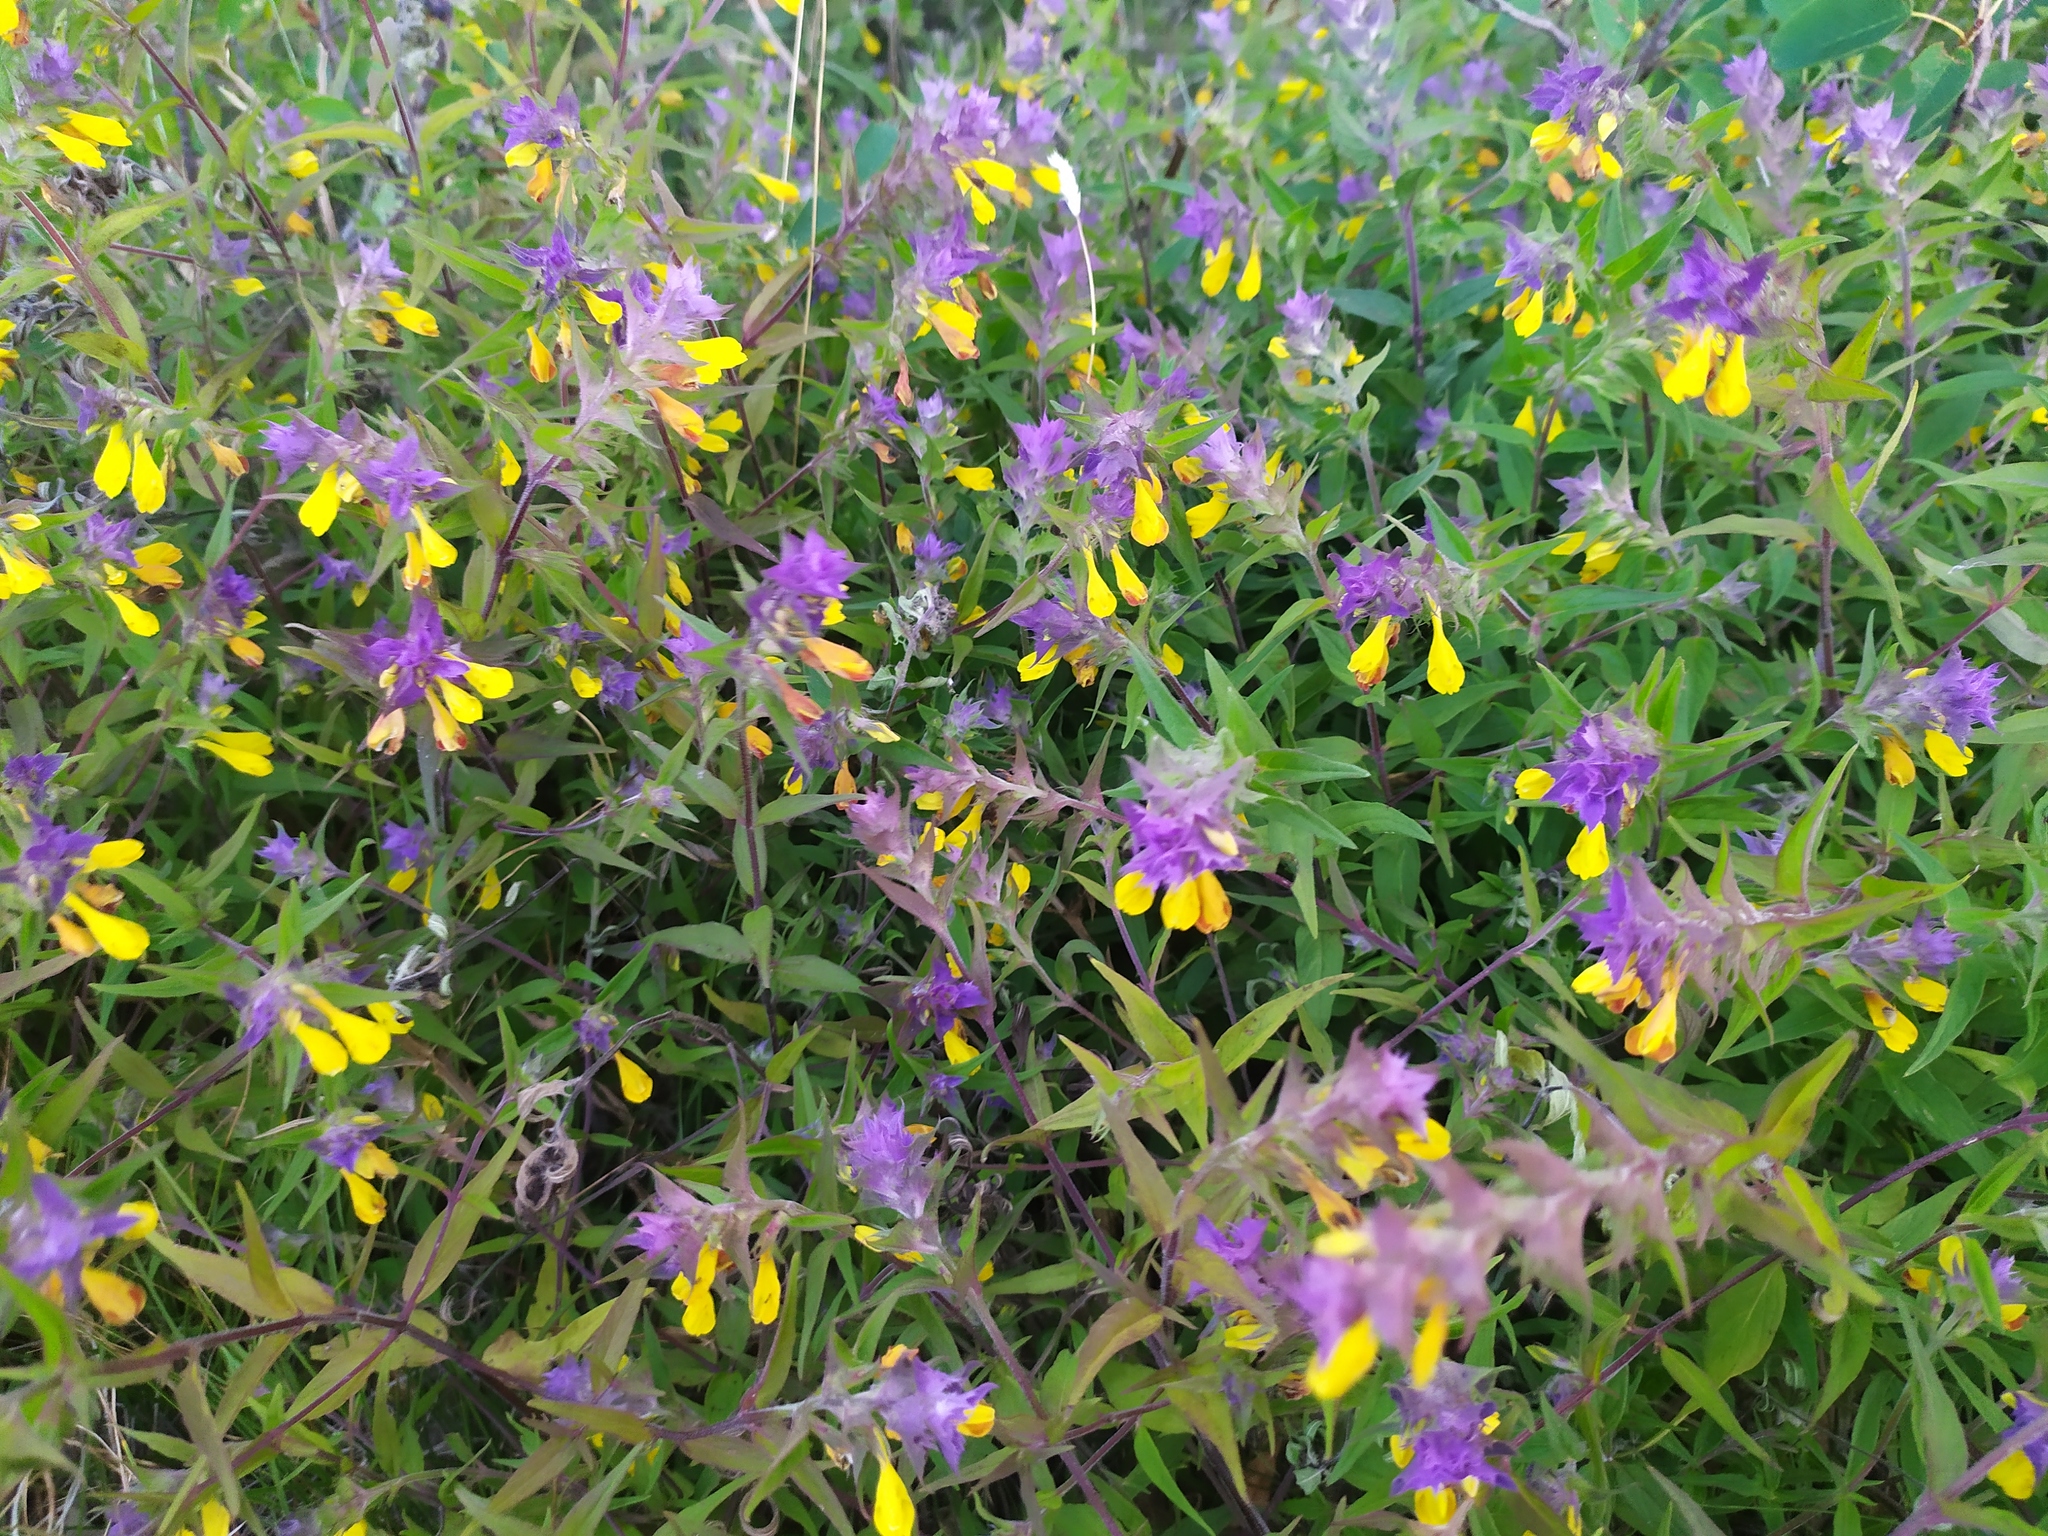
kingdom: Plantae
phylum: Tracheophyta
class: Magnoliopsida
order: Lamiales
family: Orobanchaceae
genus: Melampyrum
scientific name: Melampyrum nemorosum
